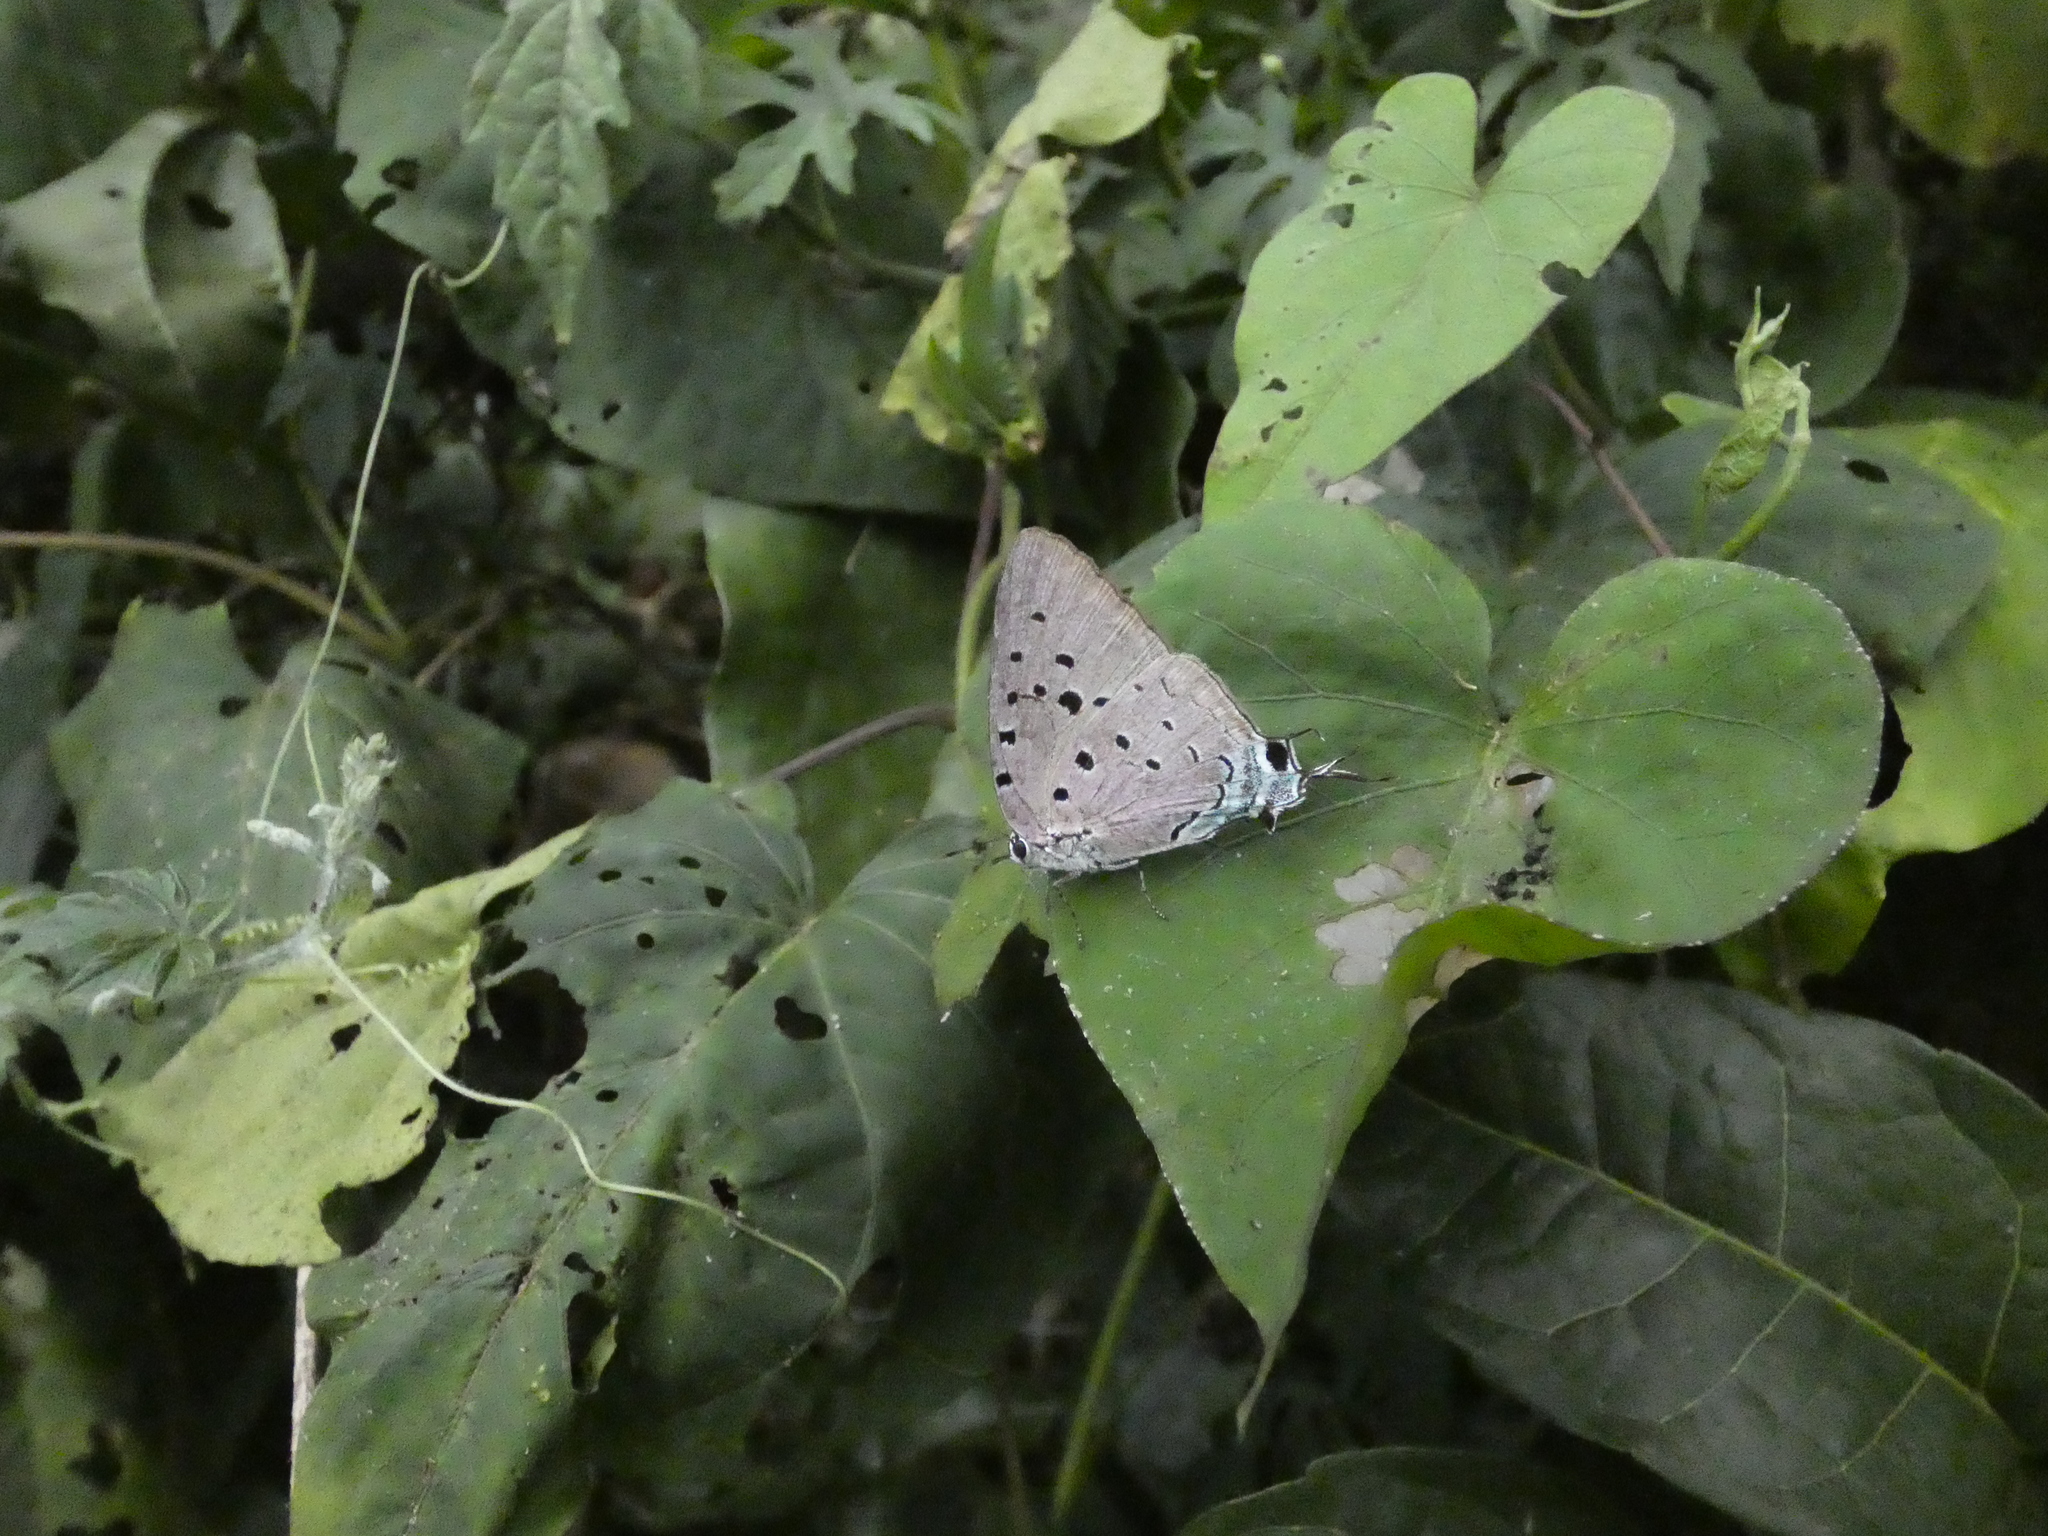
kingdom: Animalia
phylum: Arthropoda
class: Insecta
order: Lepidoptera
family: Lycaenidae
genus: Pseudolycaena
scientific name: Pseudolycaena marsyas
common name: Marsyas hairstreak
